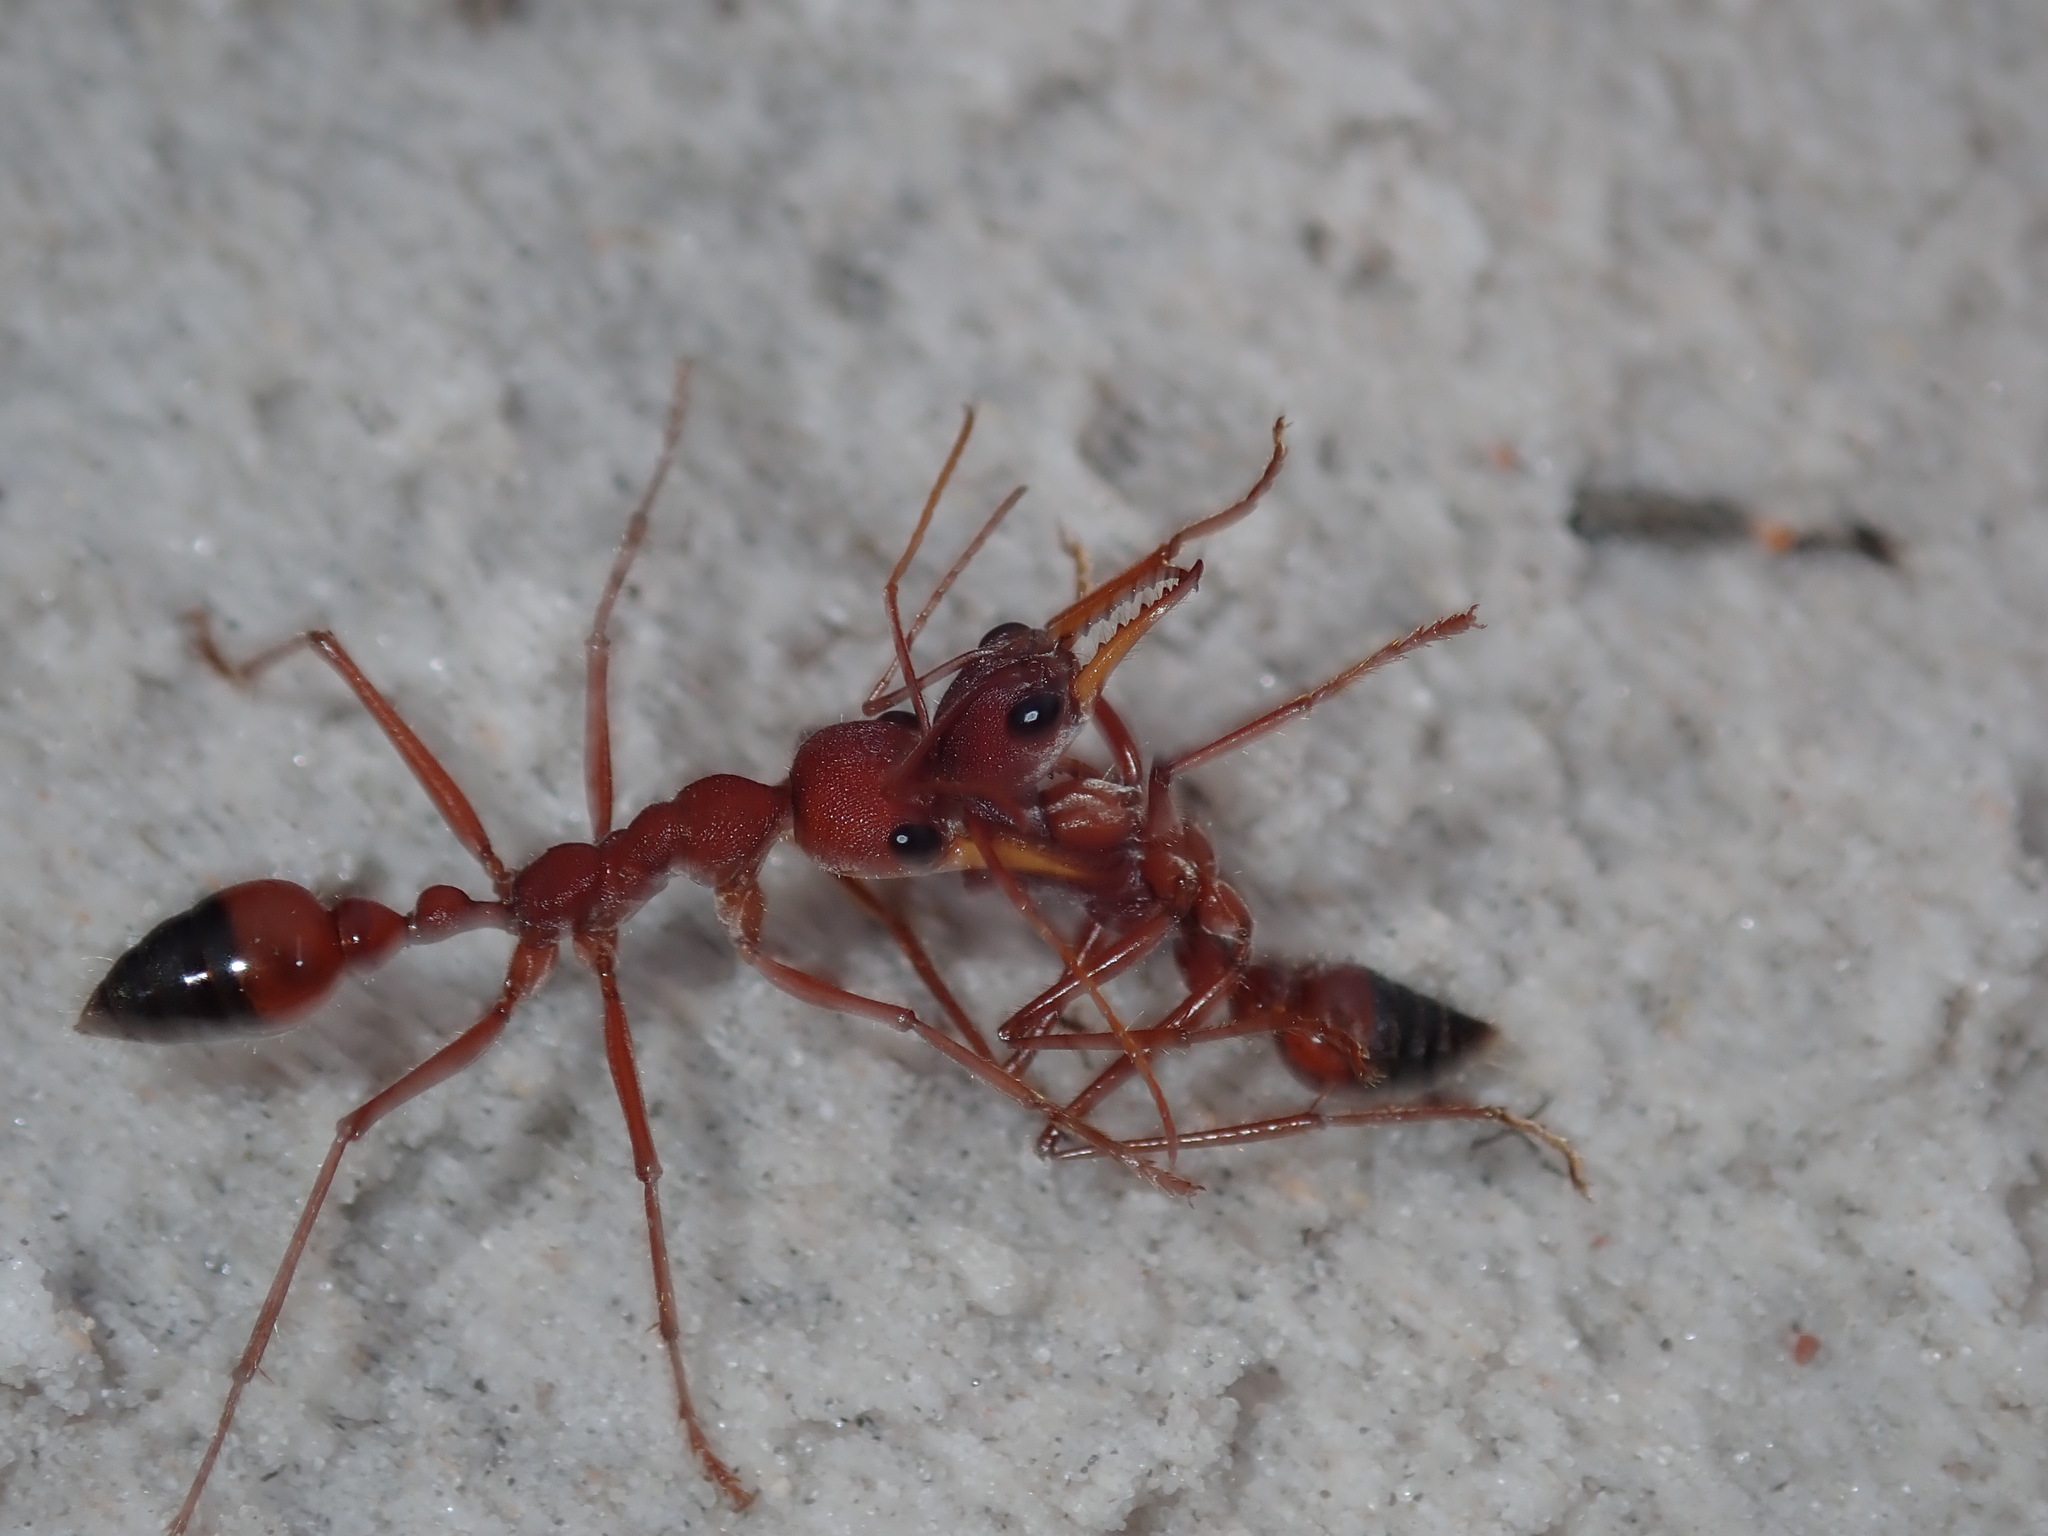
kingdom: Animalia
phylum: Arthropoda
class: Insecta
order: Hymenoptera
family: Formicidae
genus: Myrmecia
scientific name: Myrmecia gulosa
